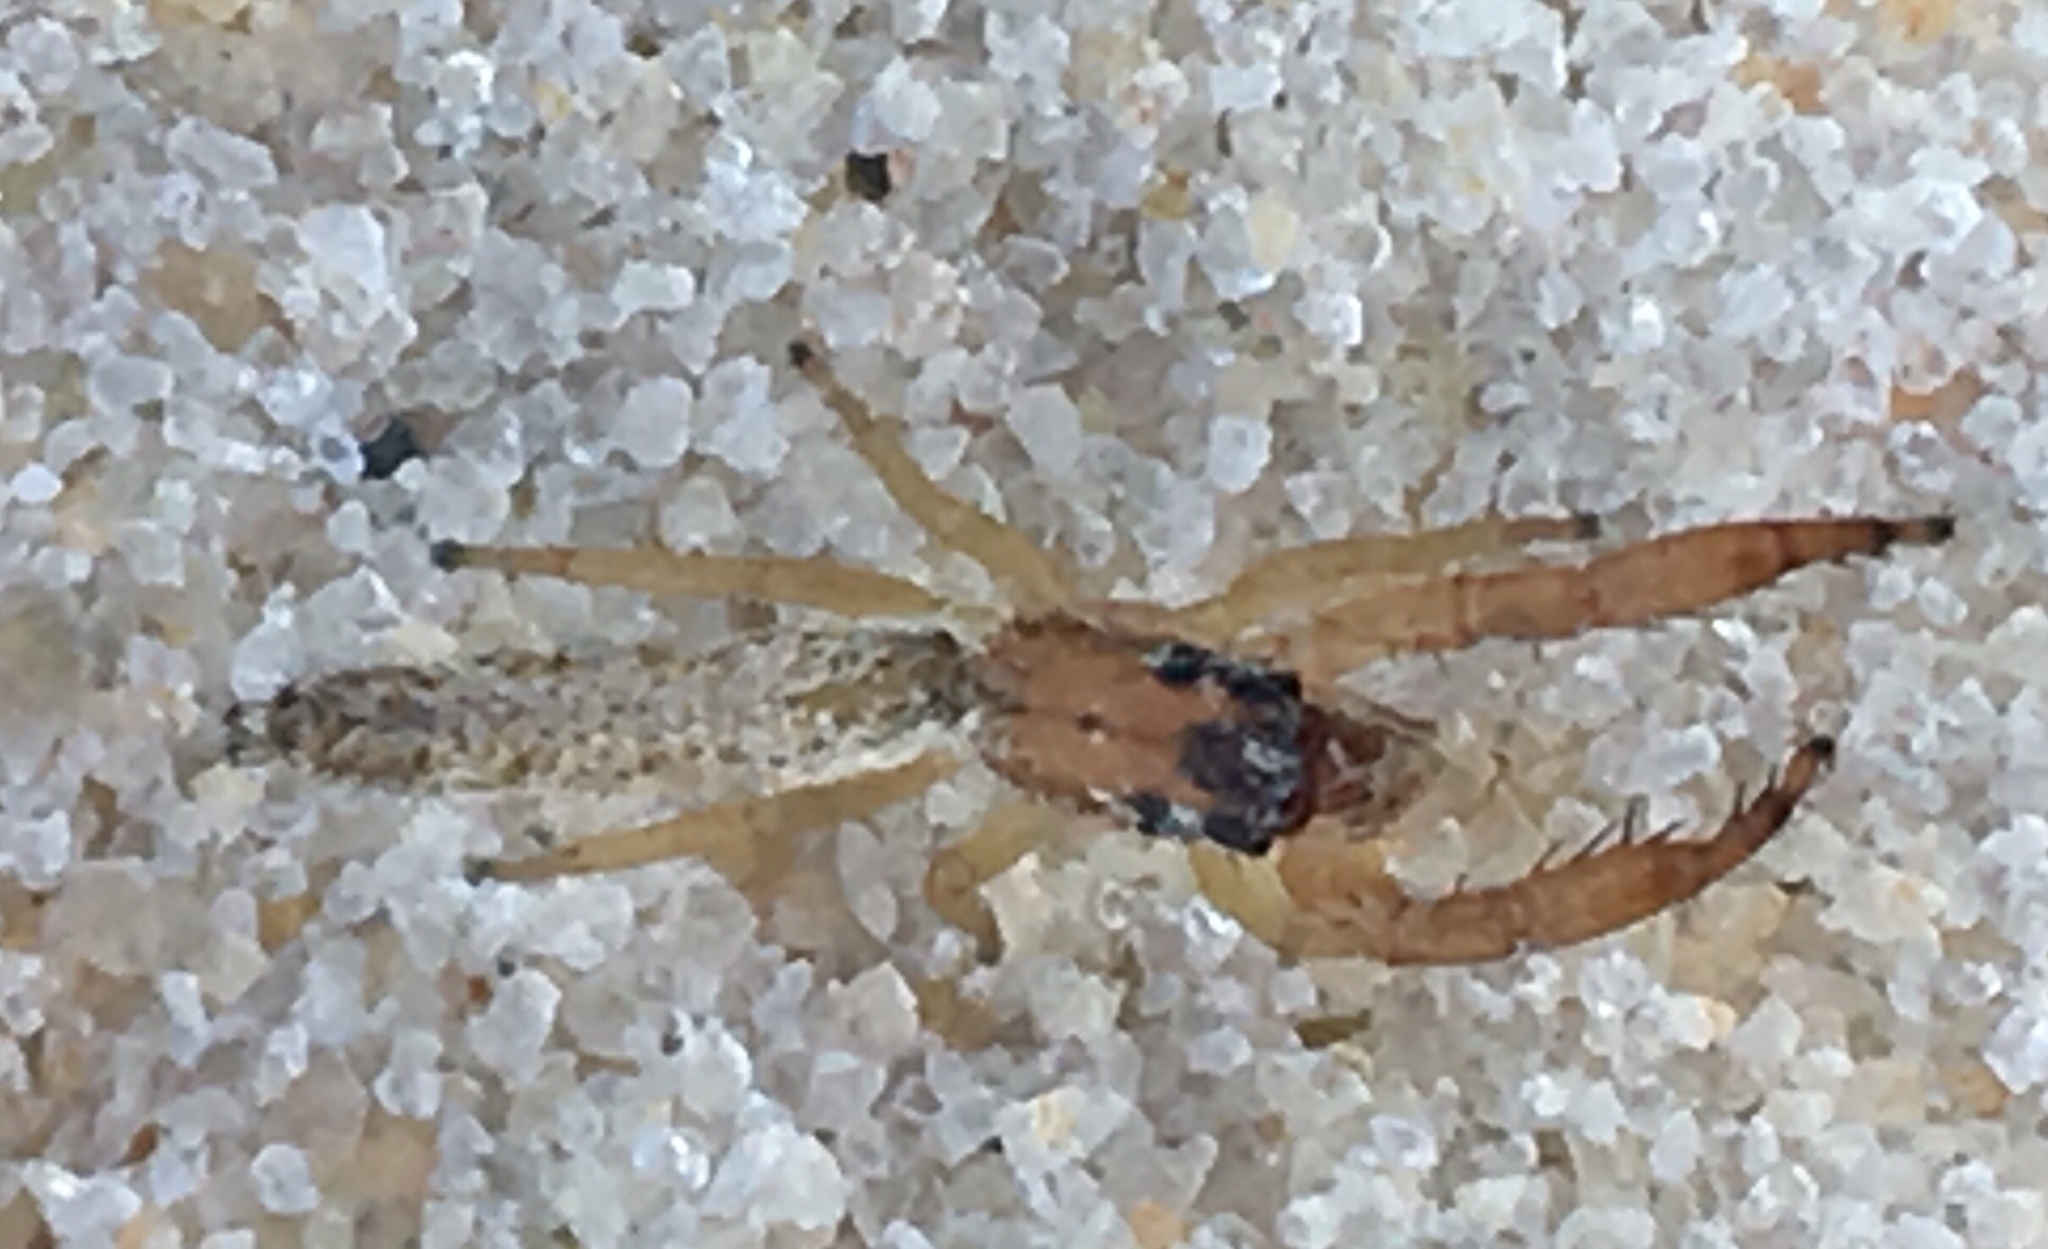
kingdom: Animalia
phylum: Arthropoda
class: Arachnida
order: Araneae
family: Salticidae
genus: Marpissa
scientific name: Marpissa pikei
